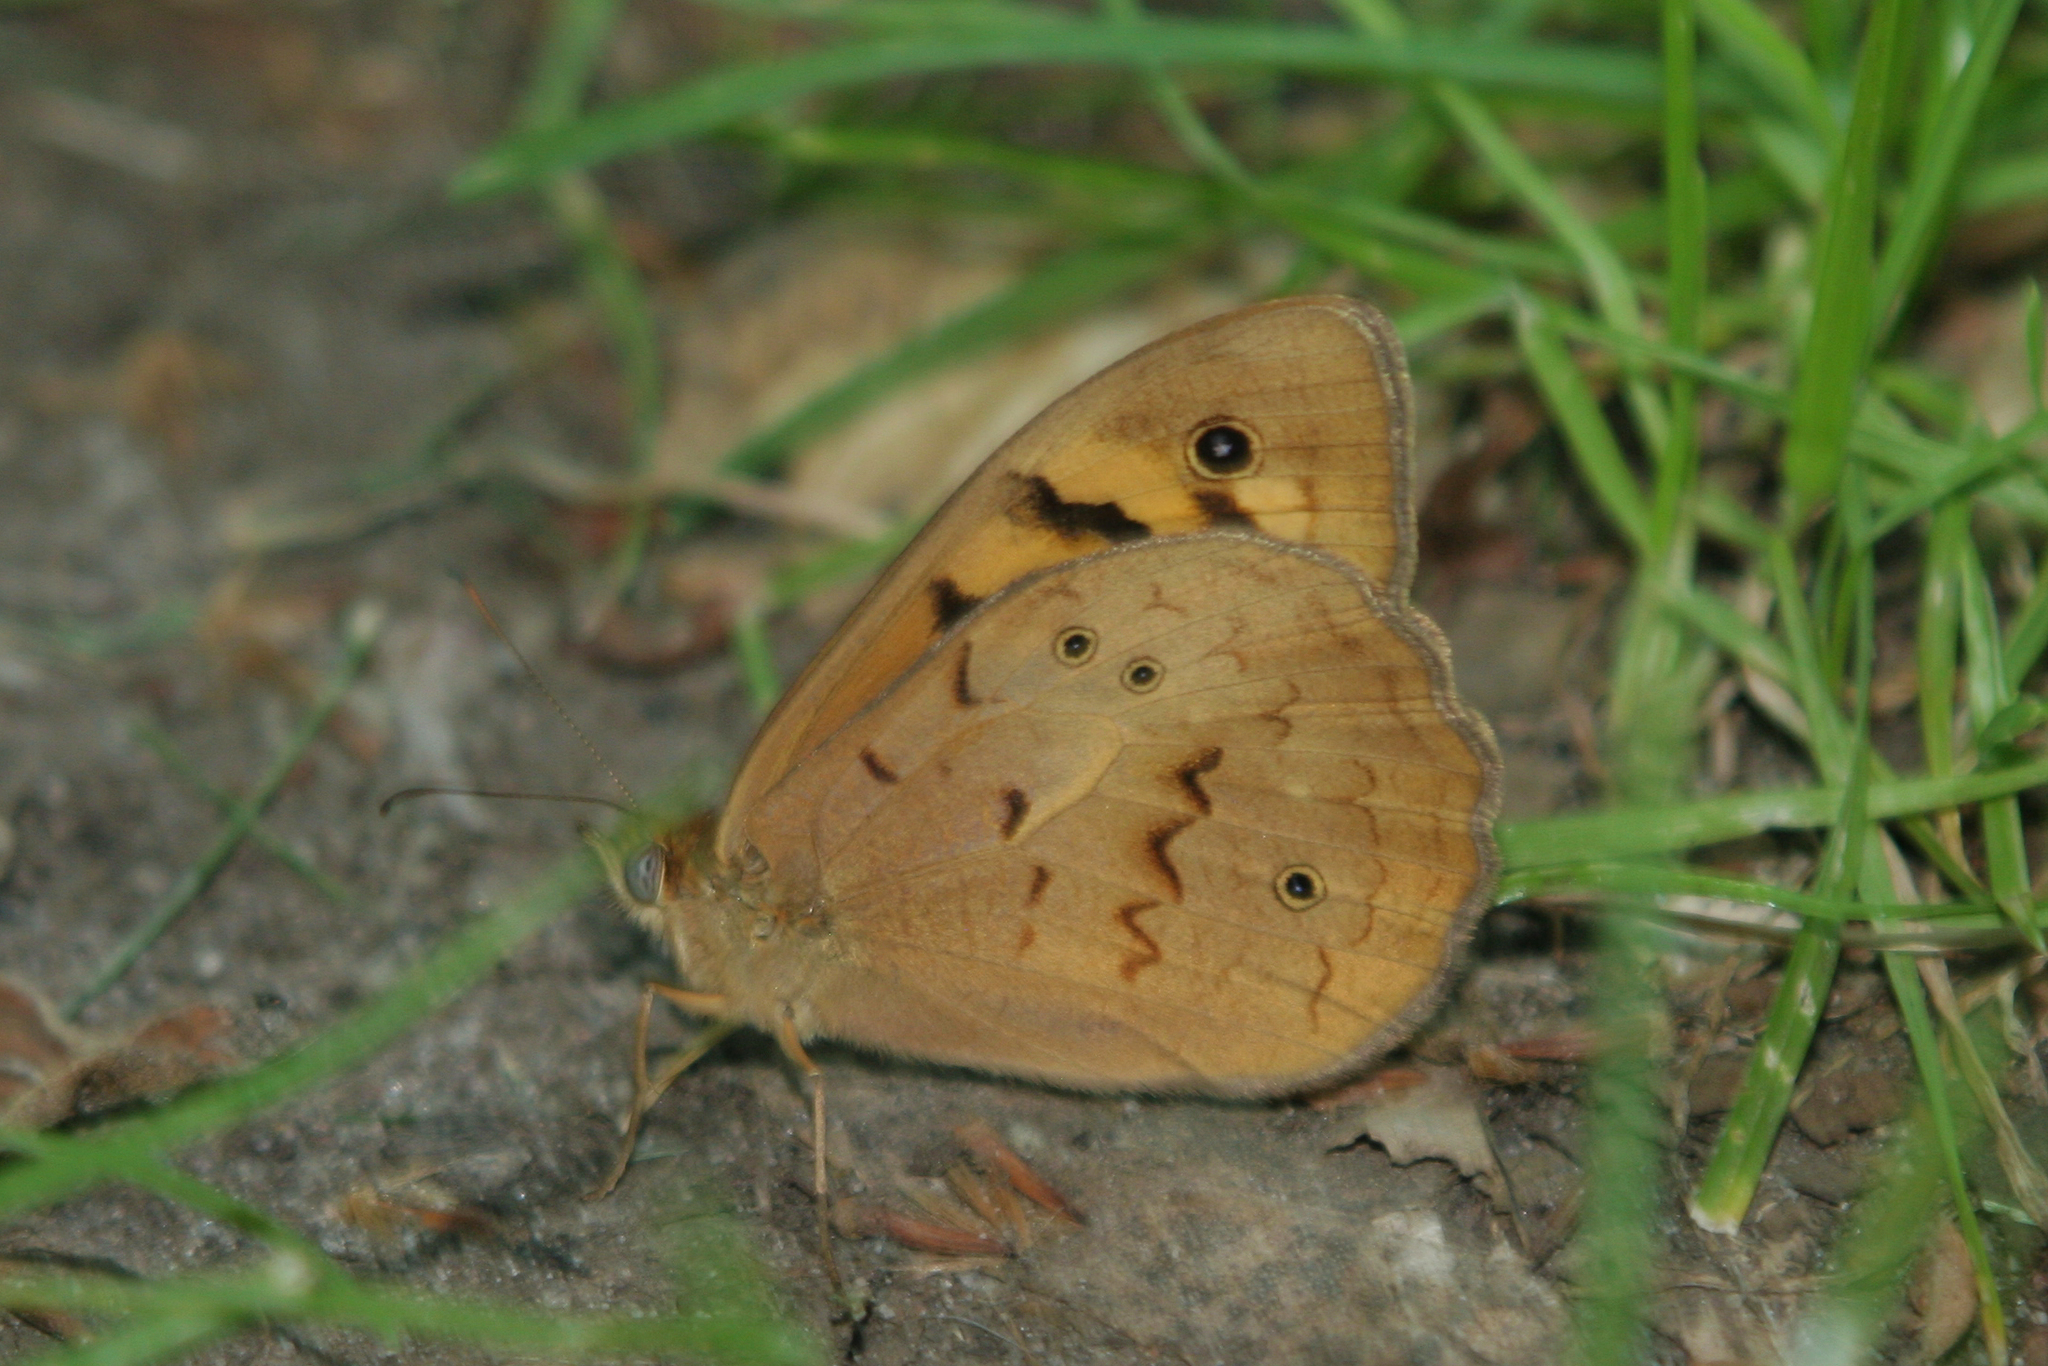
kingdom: Animalia
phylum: Arthropoda
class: Insecta
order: Lepidoptera
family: Nymphalidae
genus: Heteronympha
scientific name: Heteronympha merope
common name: Common brown
